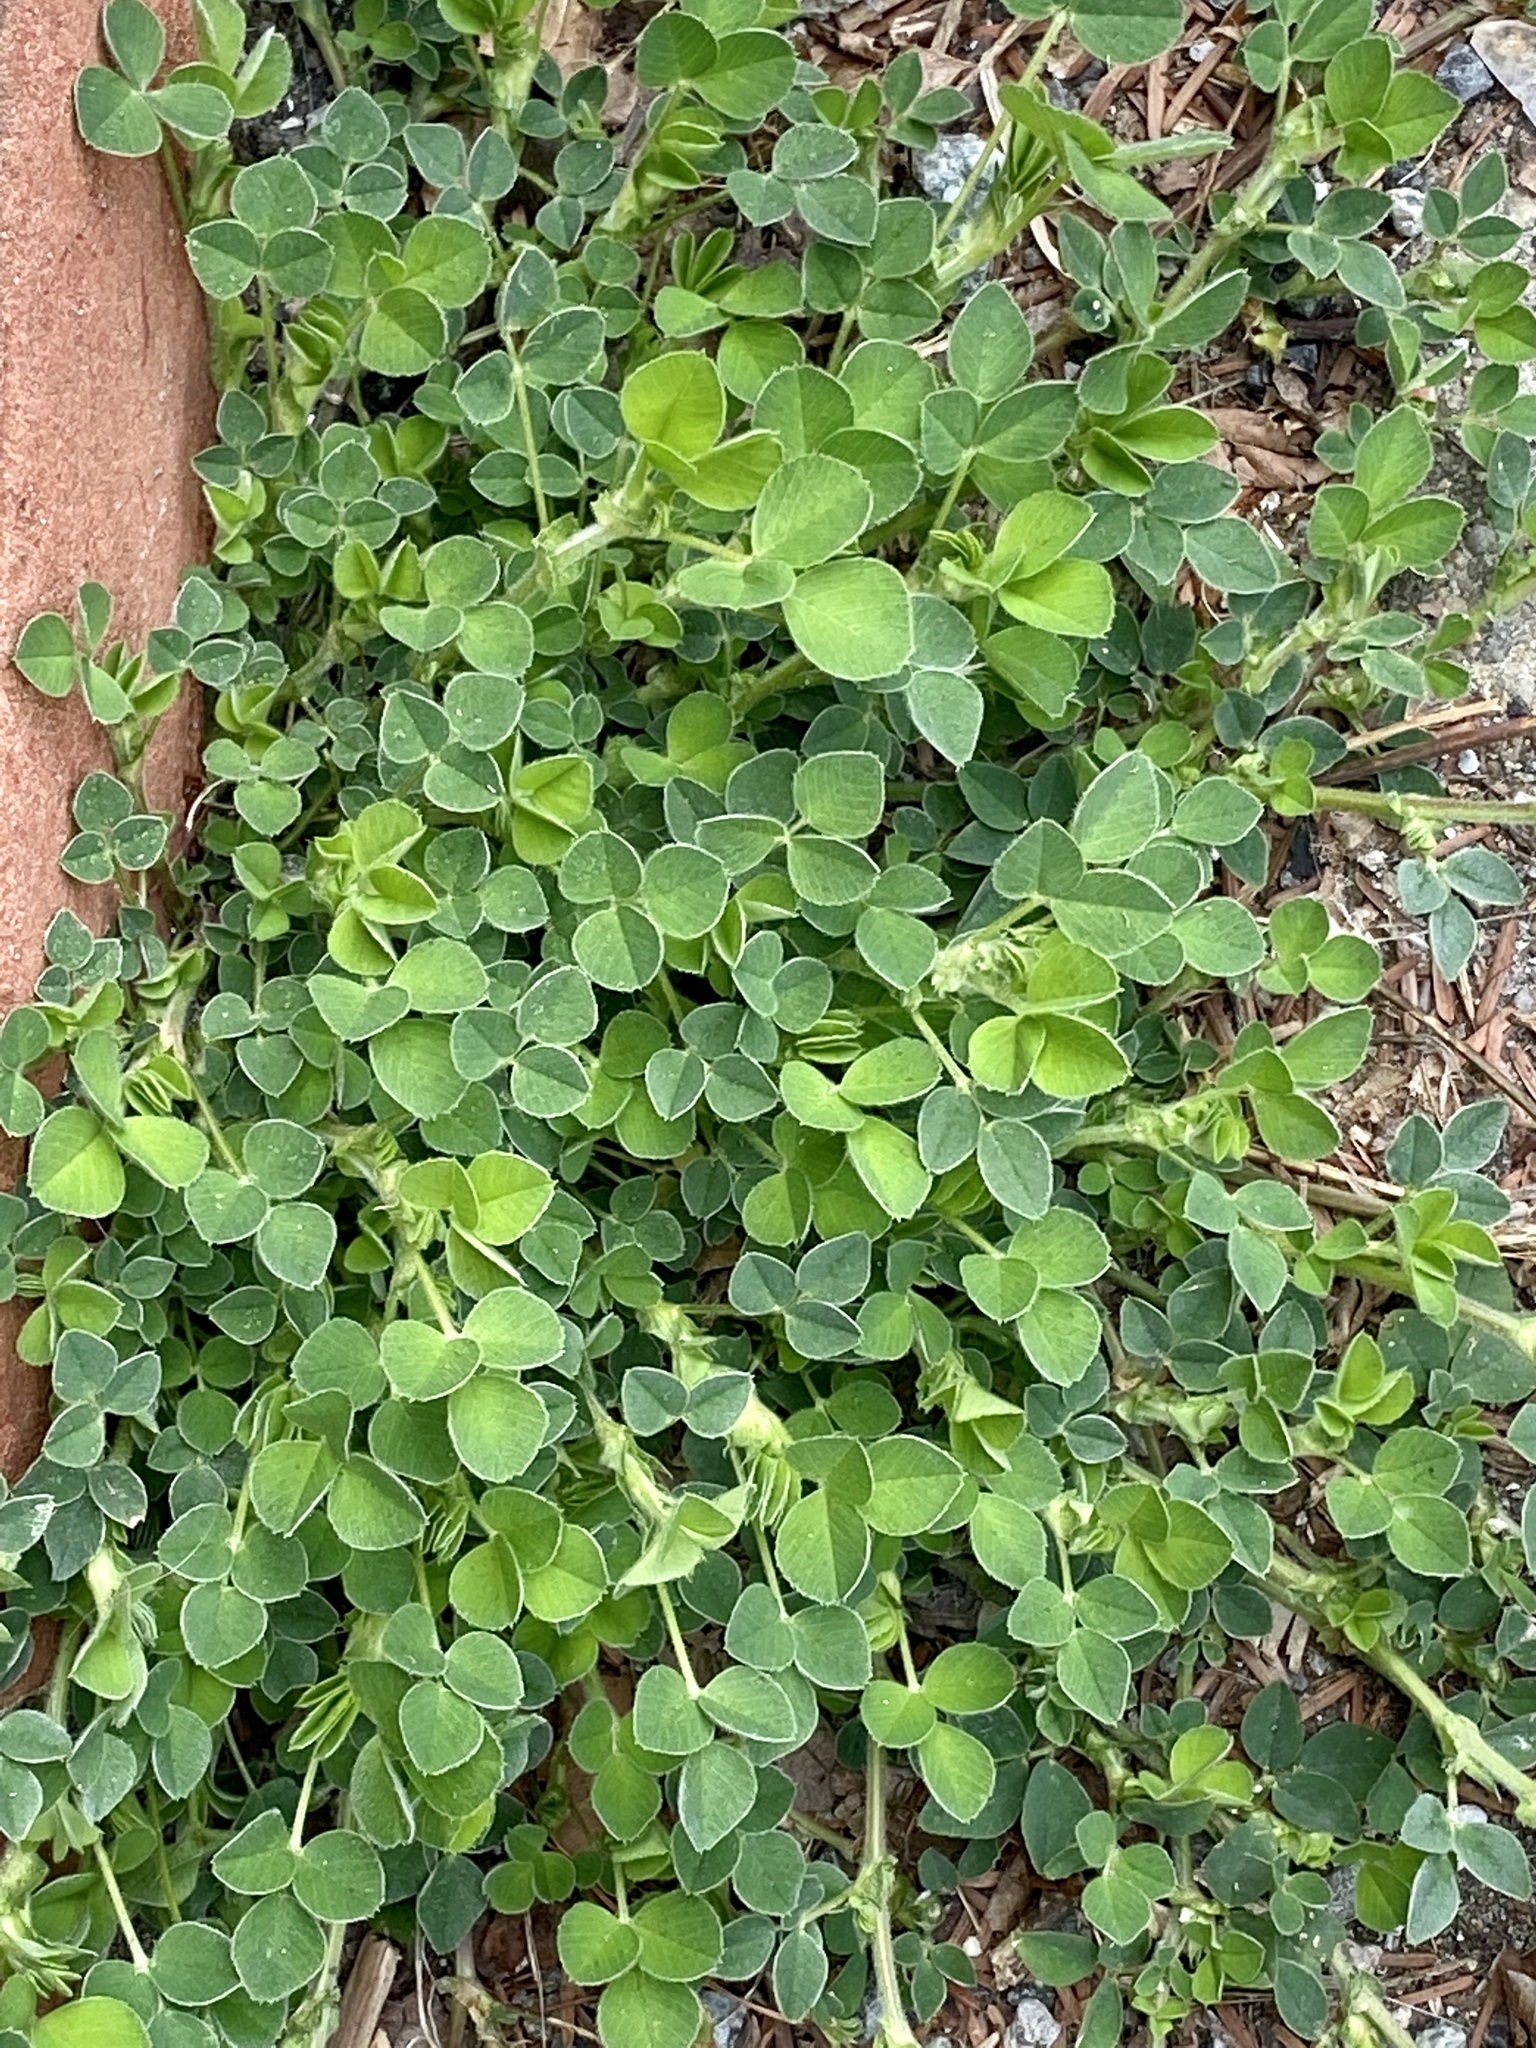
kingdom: Plantae
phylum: Tracheophyta
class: Magnoliopsida
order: Fabales
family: Fabaceae
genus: Medicago
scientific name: Medicago lupulina
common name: Black medick
